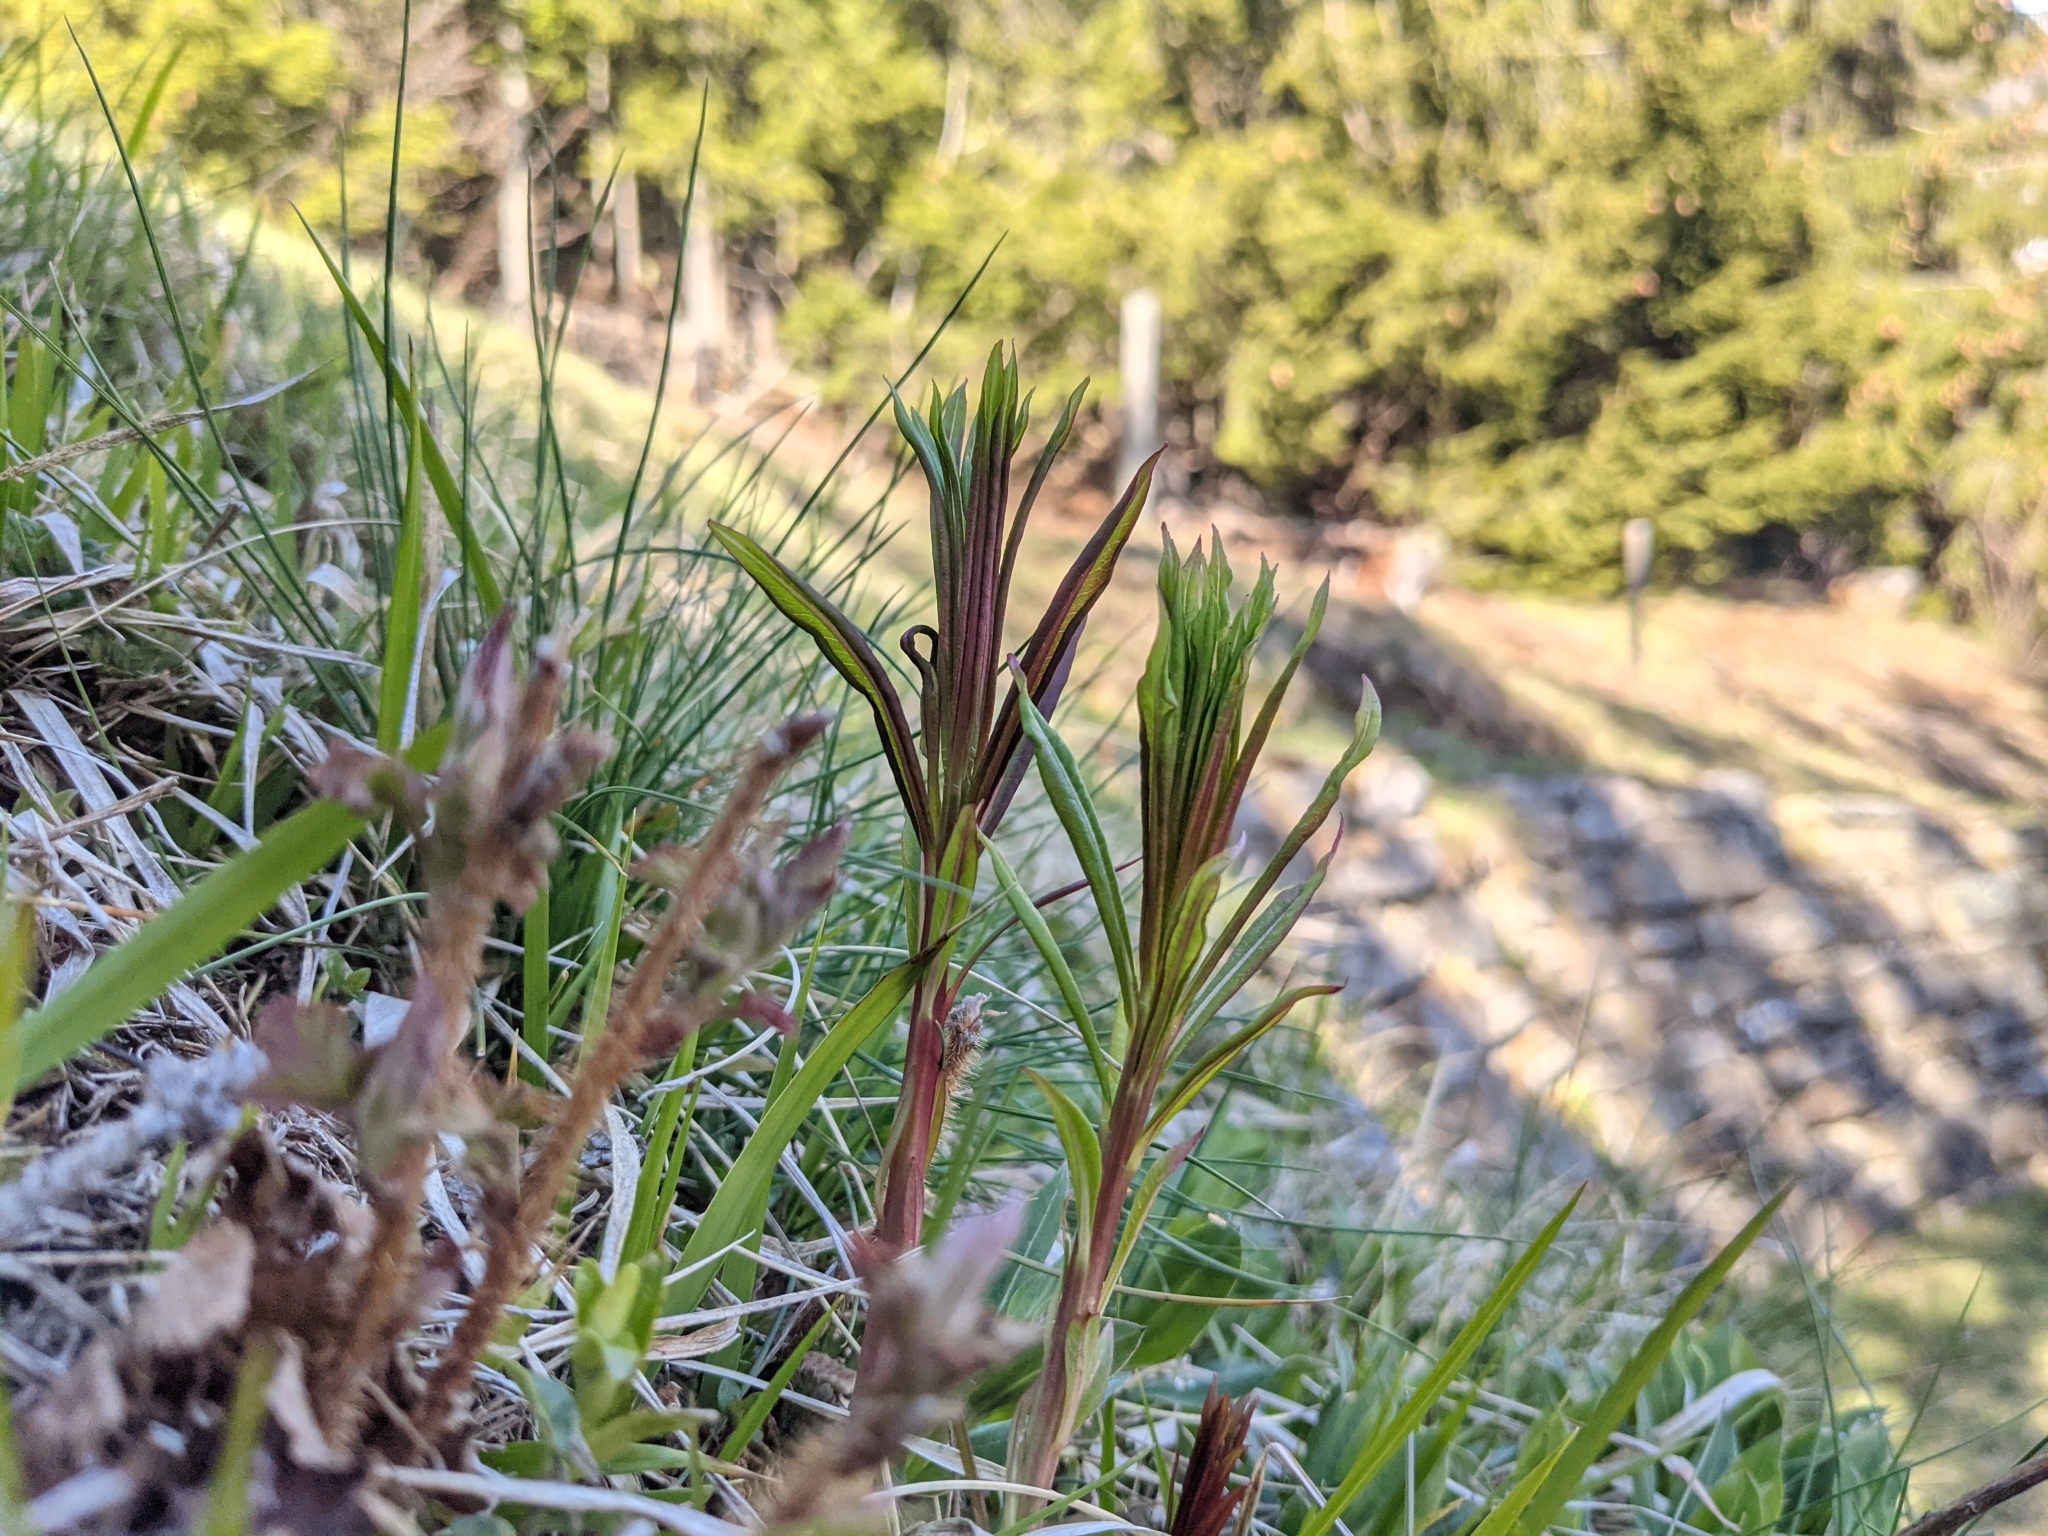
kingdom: Plantae
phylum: Tracheophyta
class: Magnoliopsida
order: Myrtales
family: Onagraceae
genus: Chamaenerion
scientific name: Chamaenerion angustifolium
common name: Fireweed
